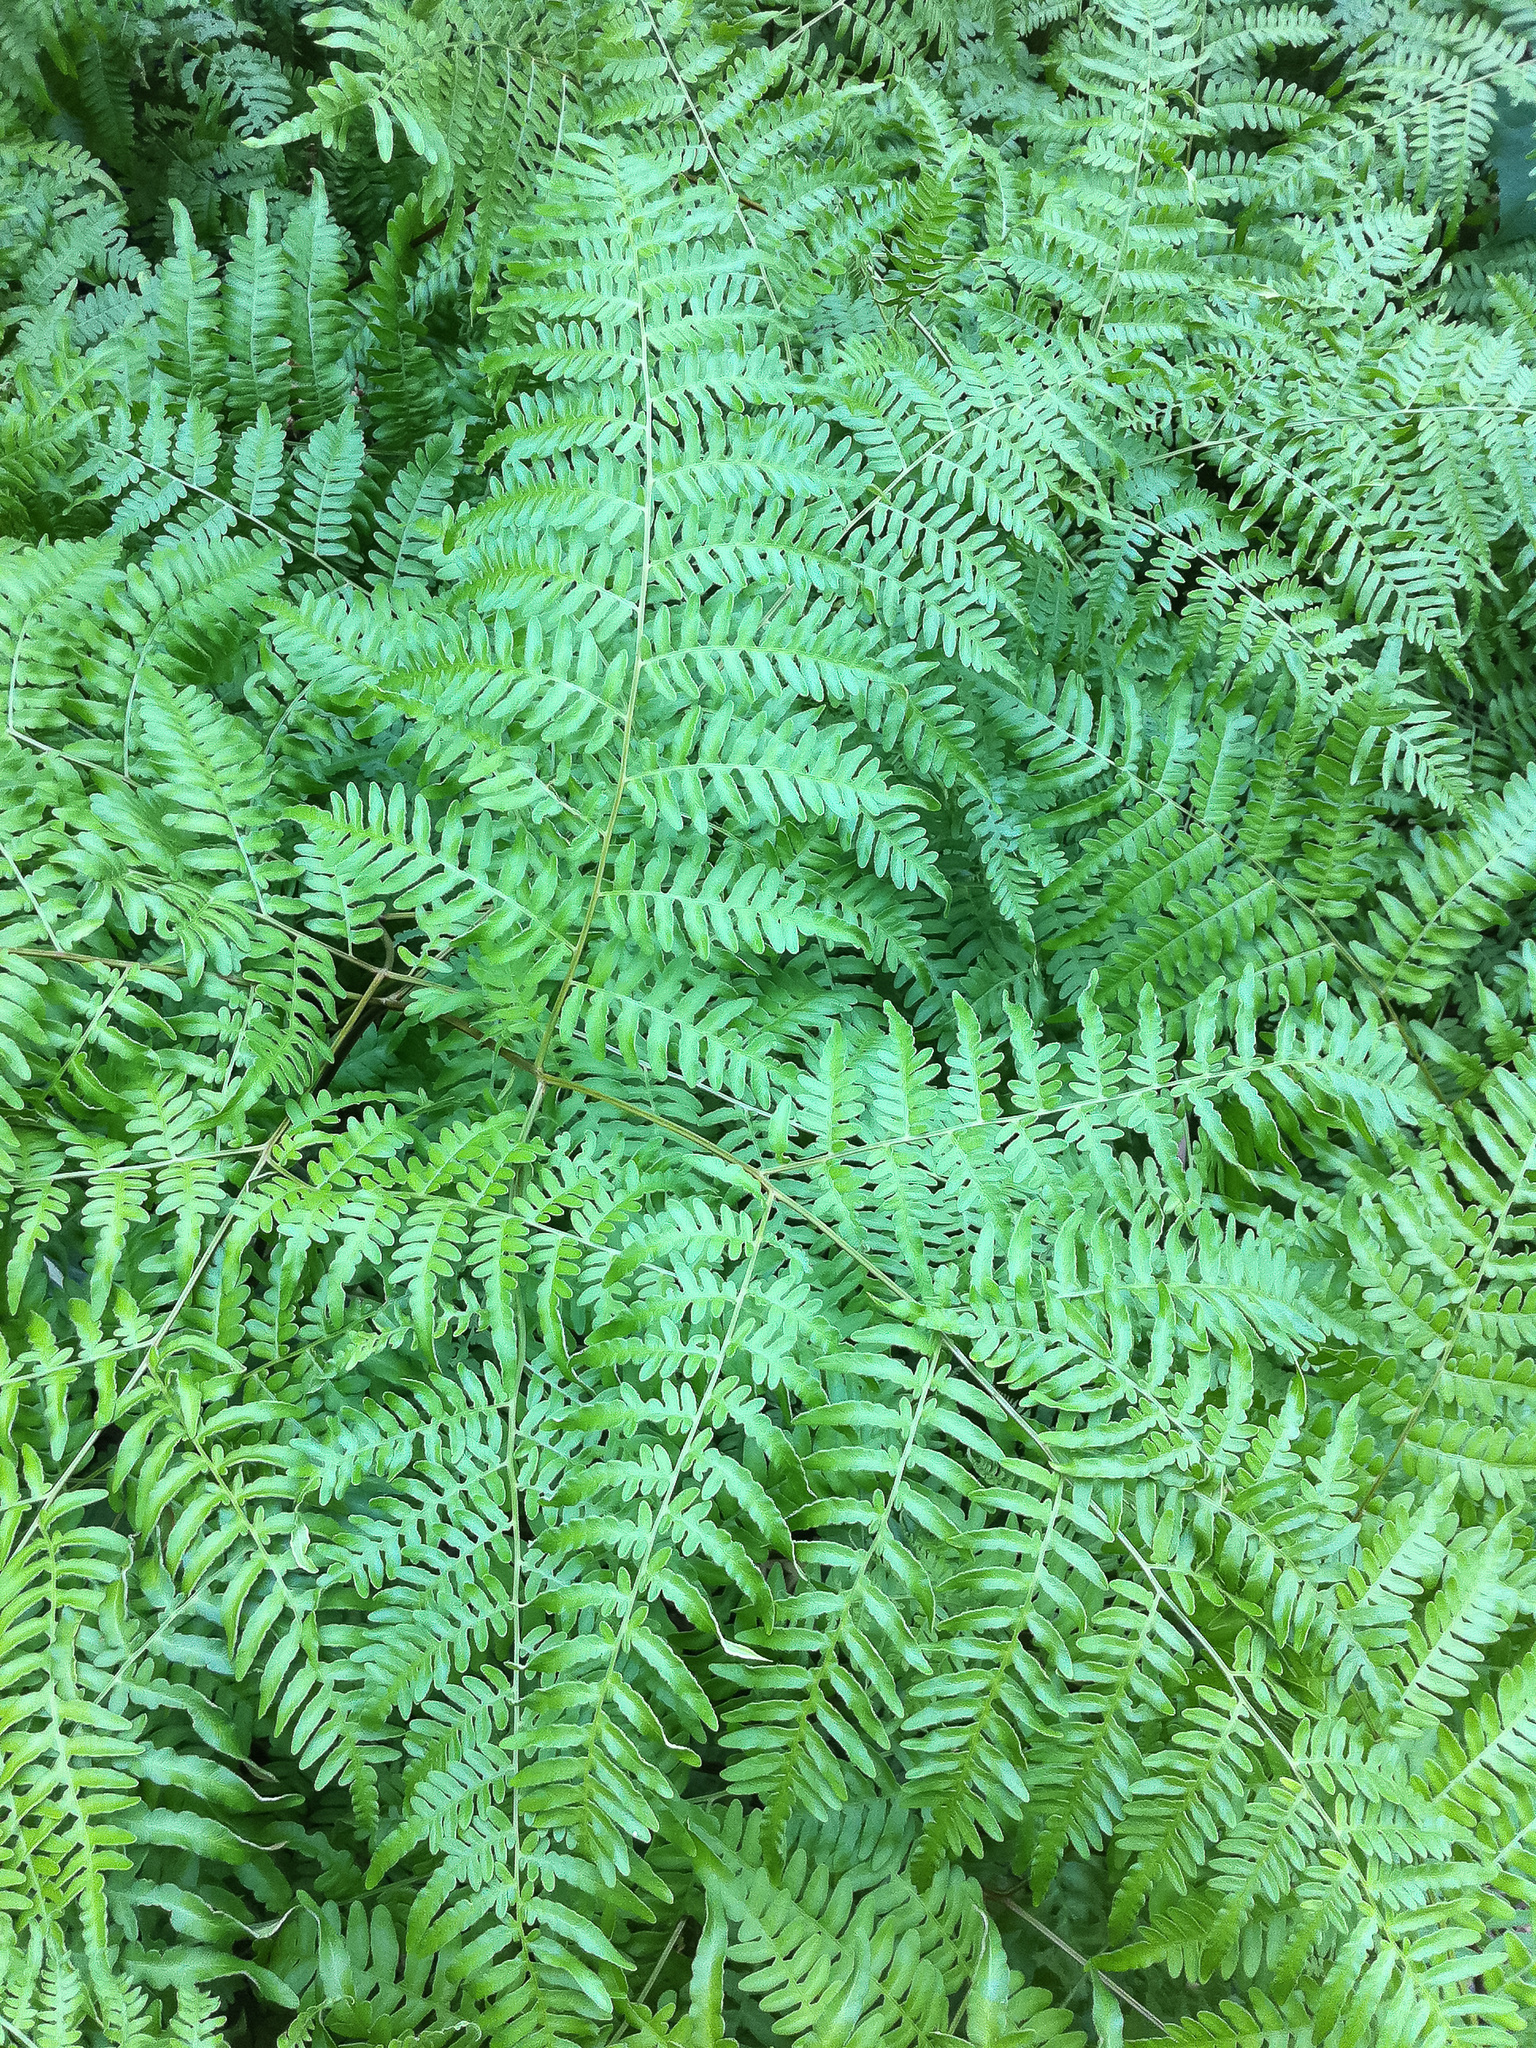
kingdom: Plantae
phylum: Tracheophyta
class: Polypodiopsida
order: Polypodiales
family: Dennstaedtiaceae
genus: Pteridium
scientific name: Pteridium aquilinum
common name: Bracken
